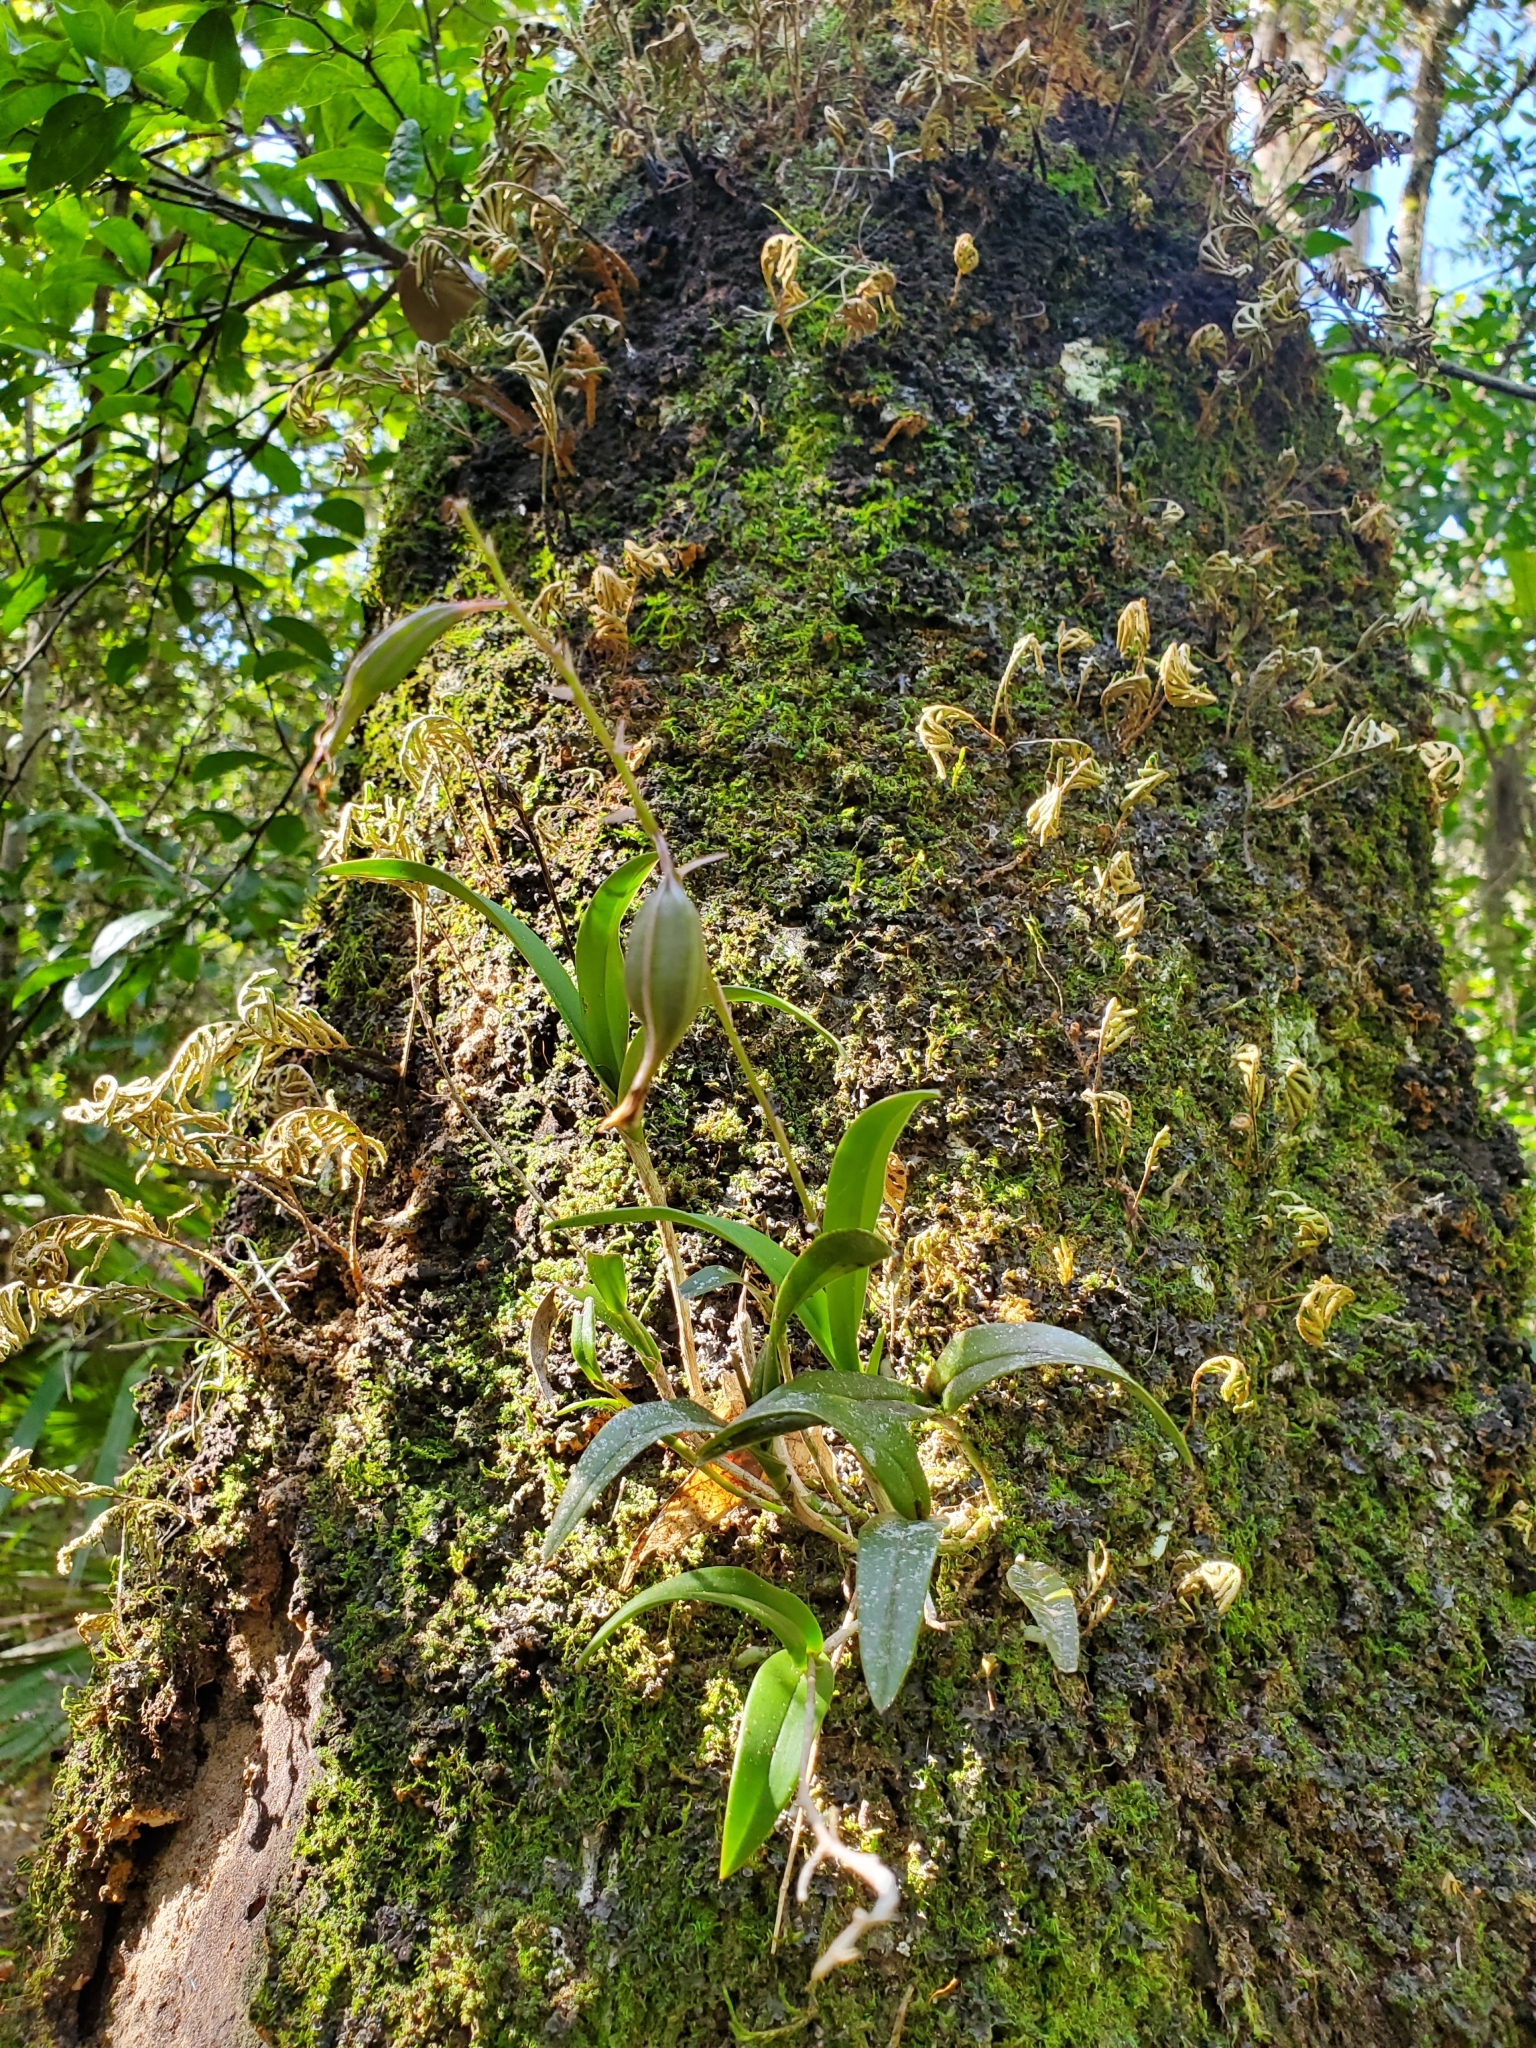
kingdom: Plantae
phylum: Tracheophyta
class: Liliopsida
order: Asparagales
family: Orchidaceae
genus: Epidendrum
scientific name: Epidendrum conopseum
